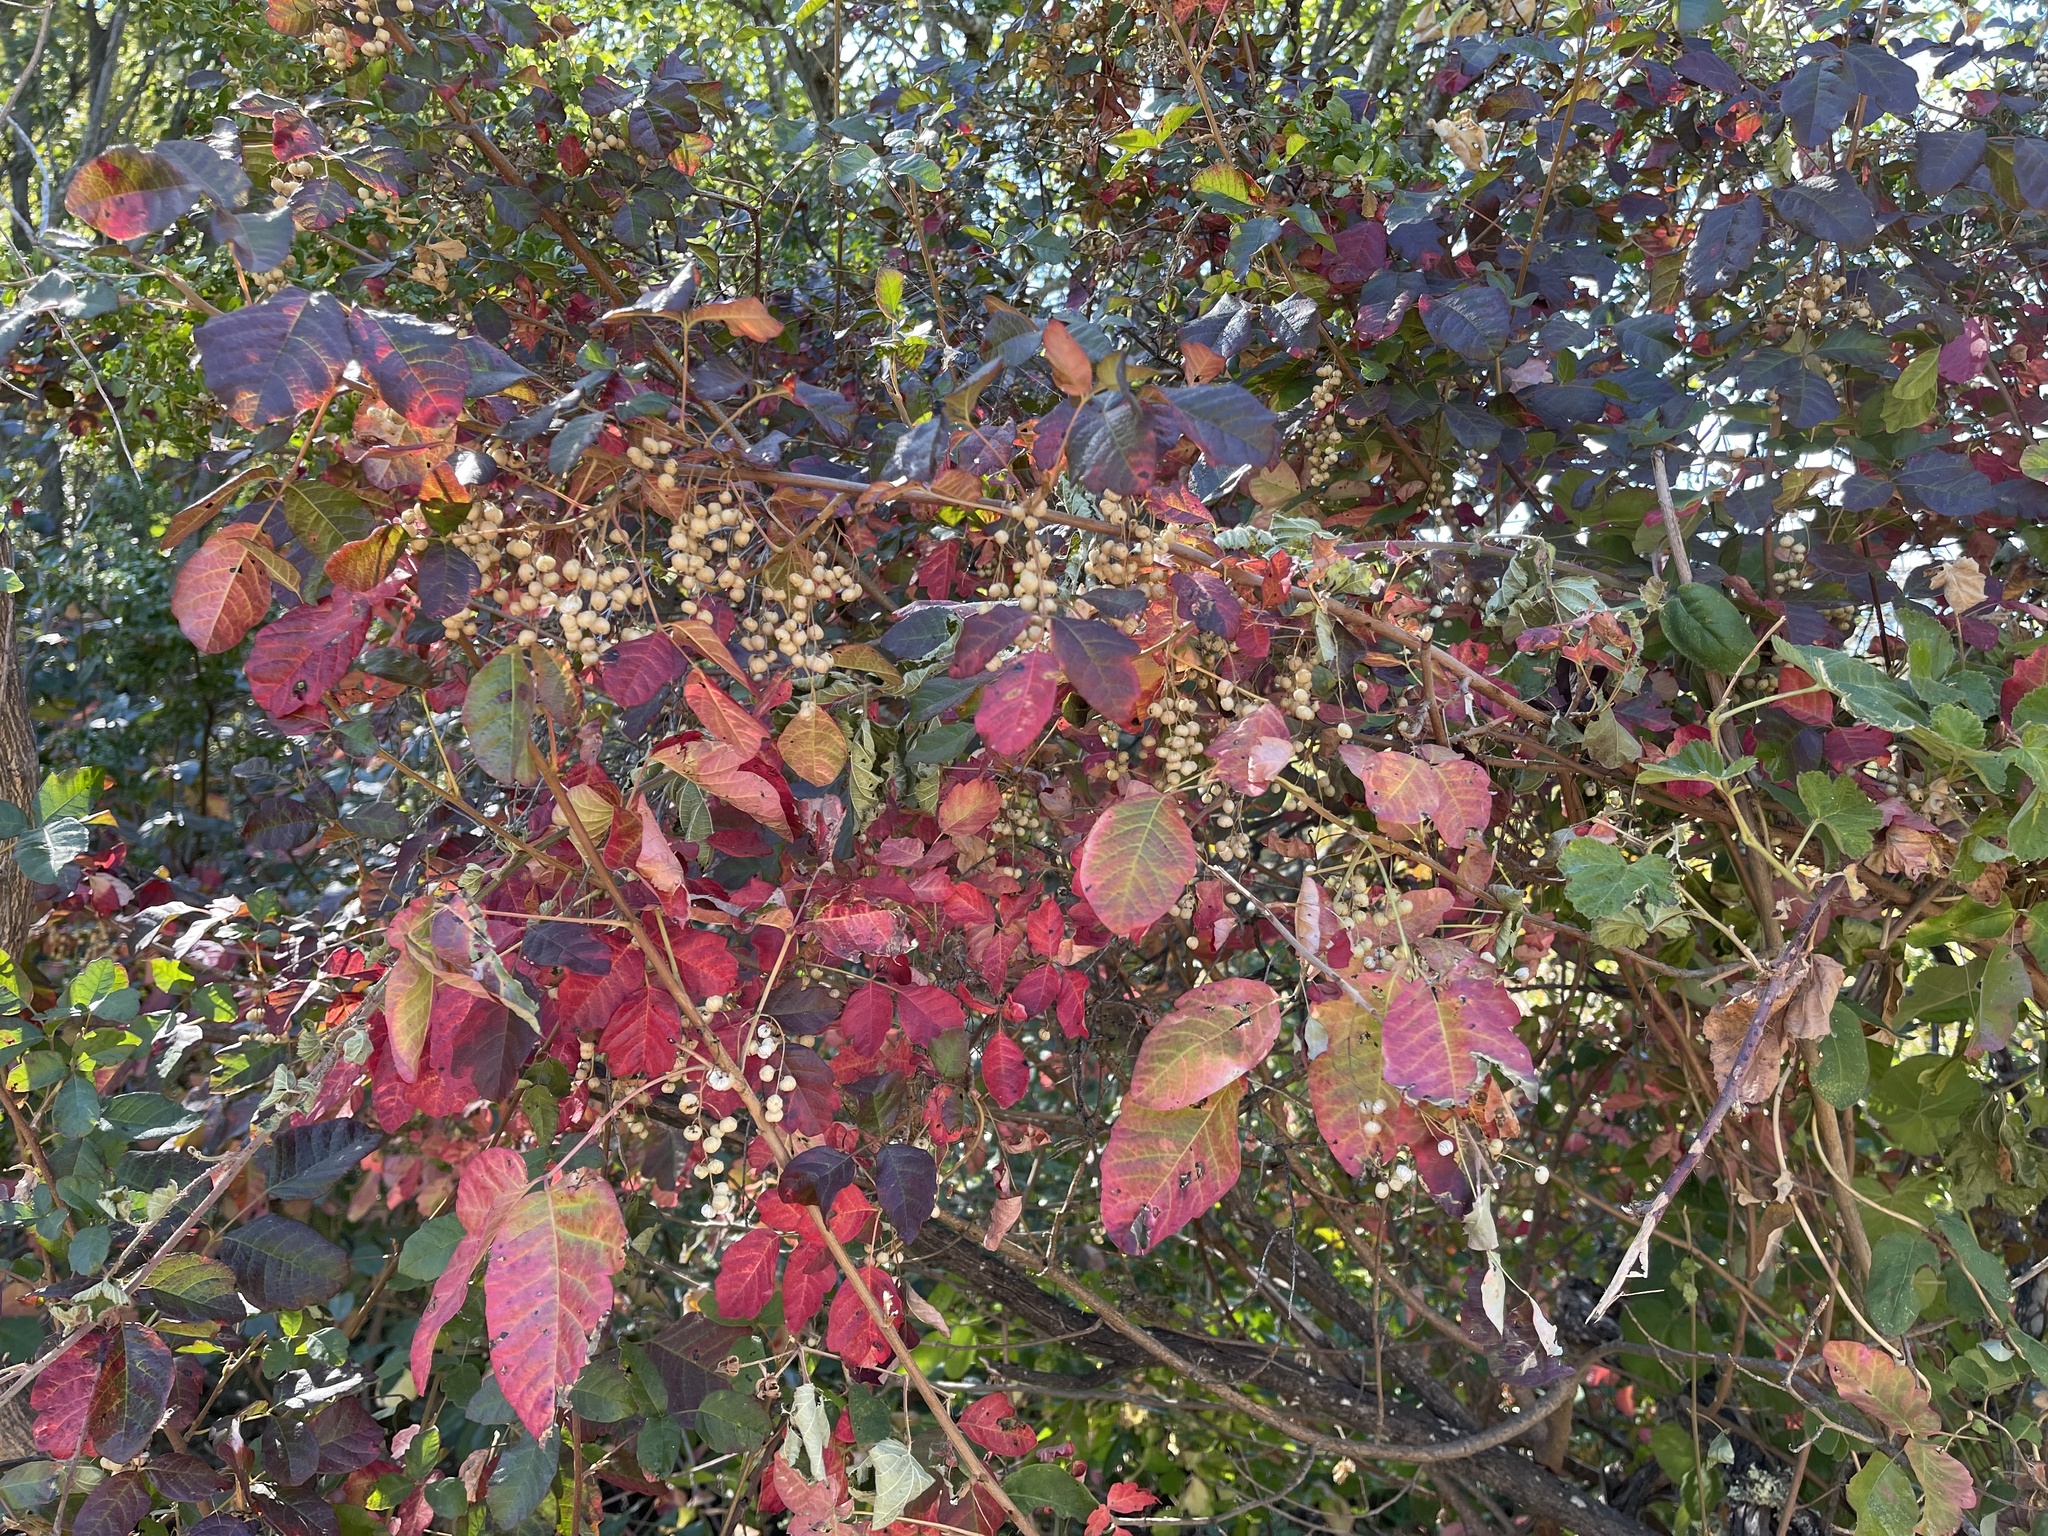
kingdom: Plantae
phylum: Tracheophyta
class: Magnoliopsida
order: Sapindales
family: Anacardiaceae
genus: Toxicodendron
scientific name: Toxicodendron diversilobum
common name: Pacific poison-oak
